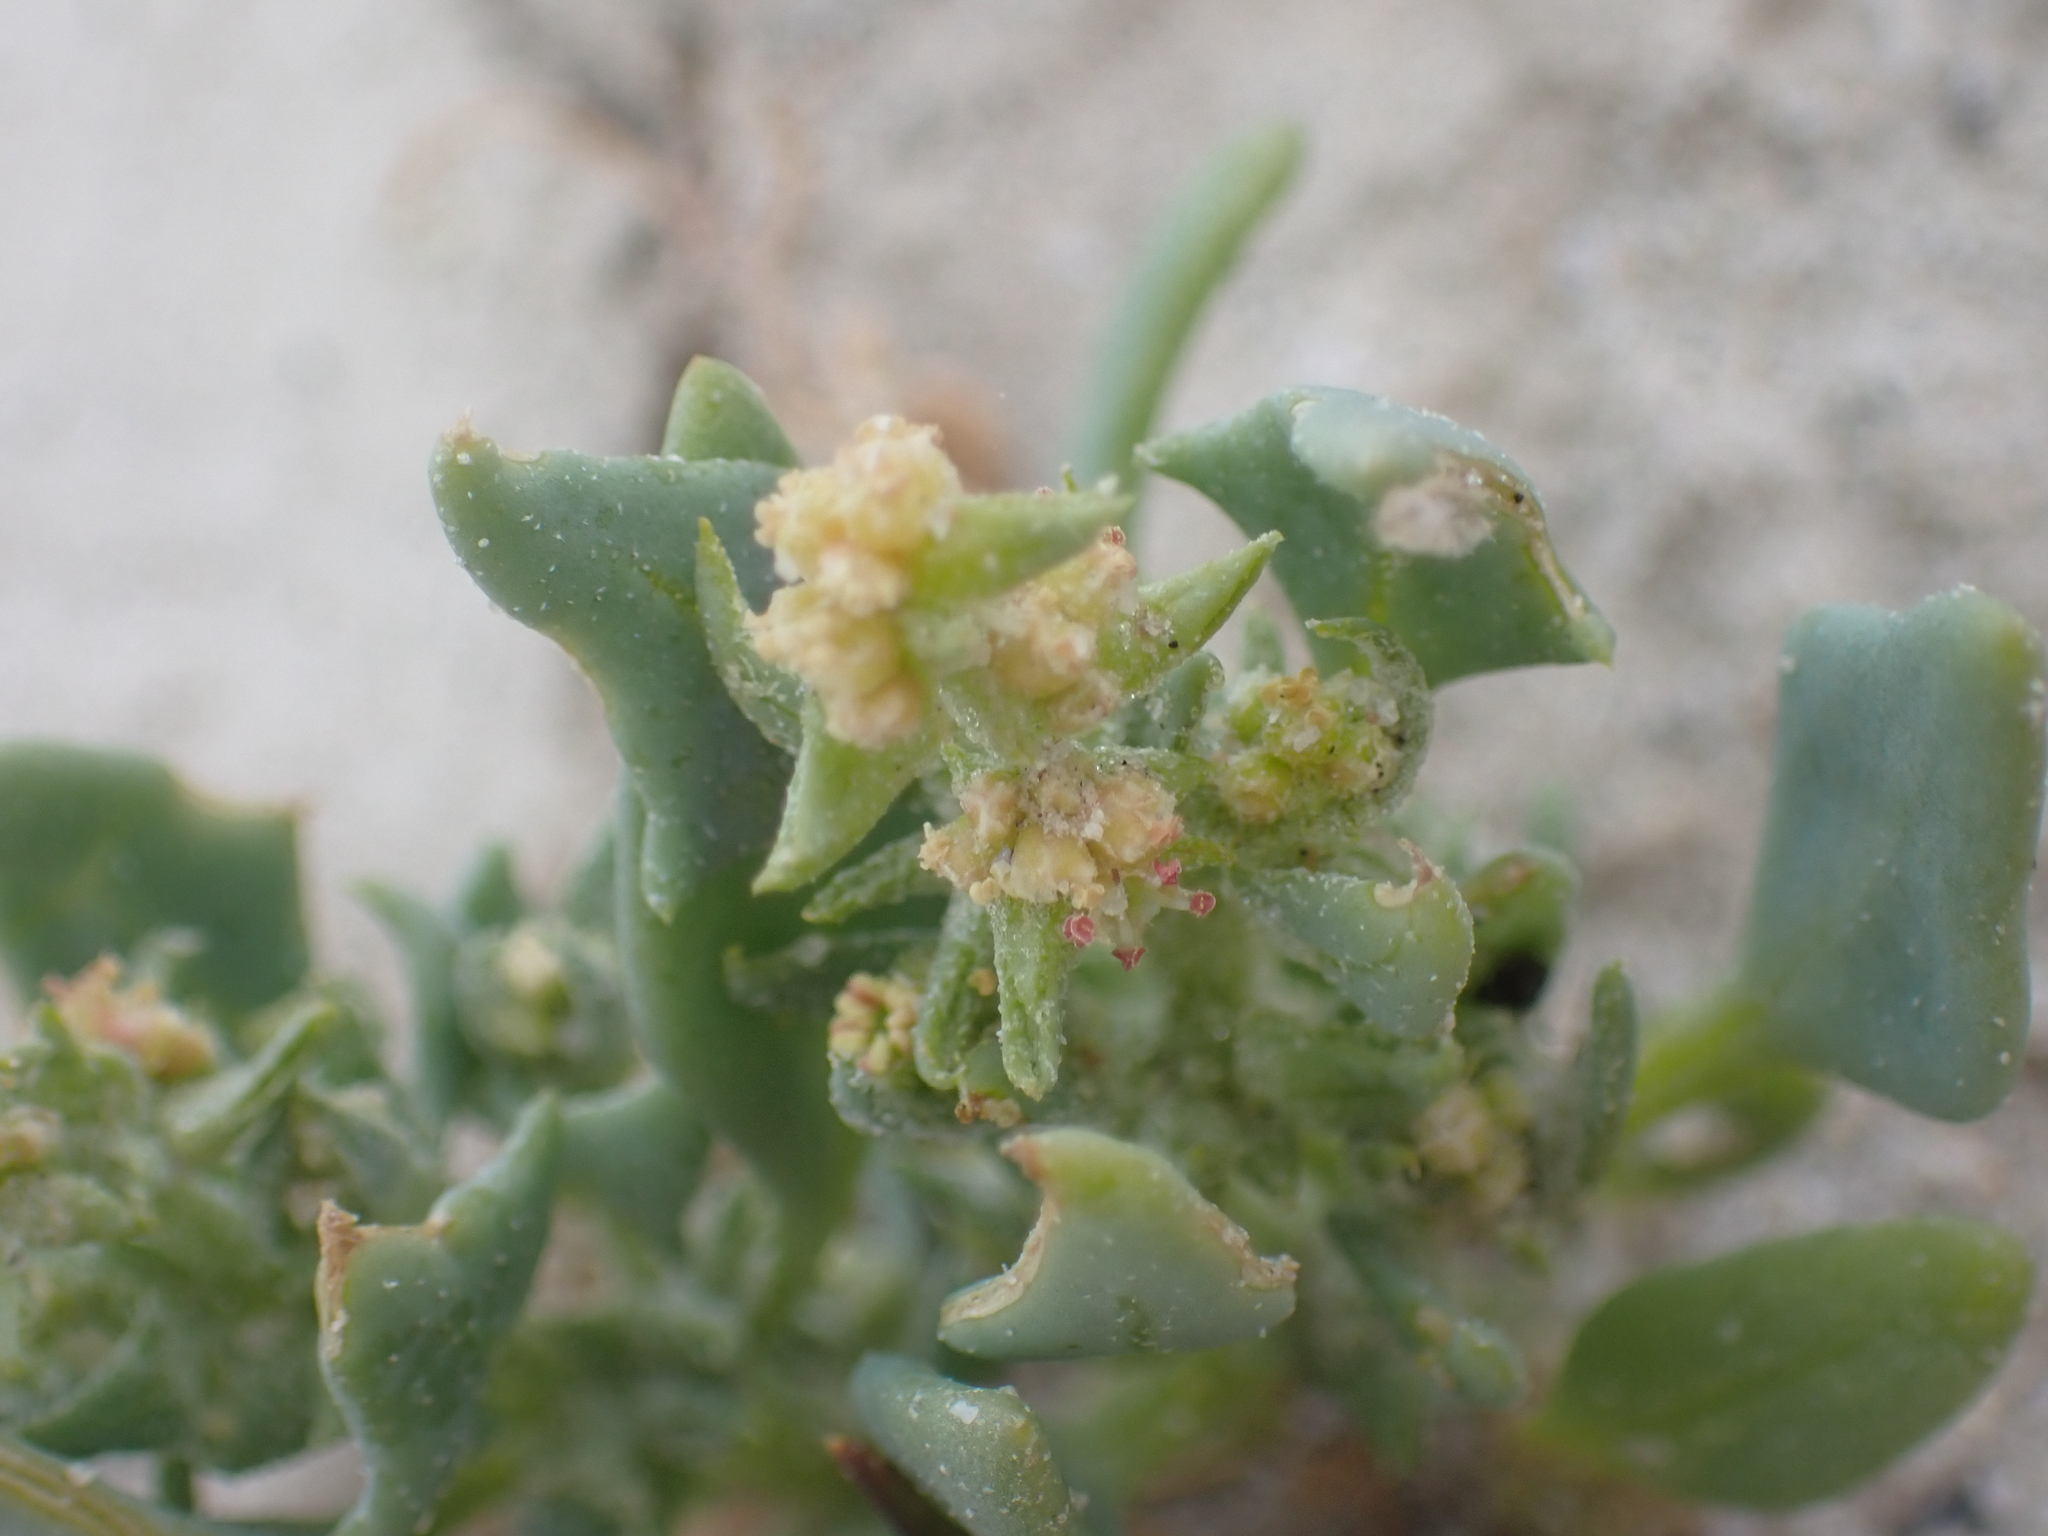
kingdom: Plantae
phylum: Tracheophyta
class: Magnoliopsida
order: Caryophyllales
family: Amaranthaceae
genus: Stutzia
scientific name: Stutzia covillei
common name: Coville's orach
